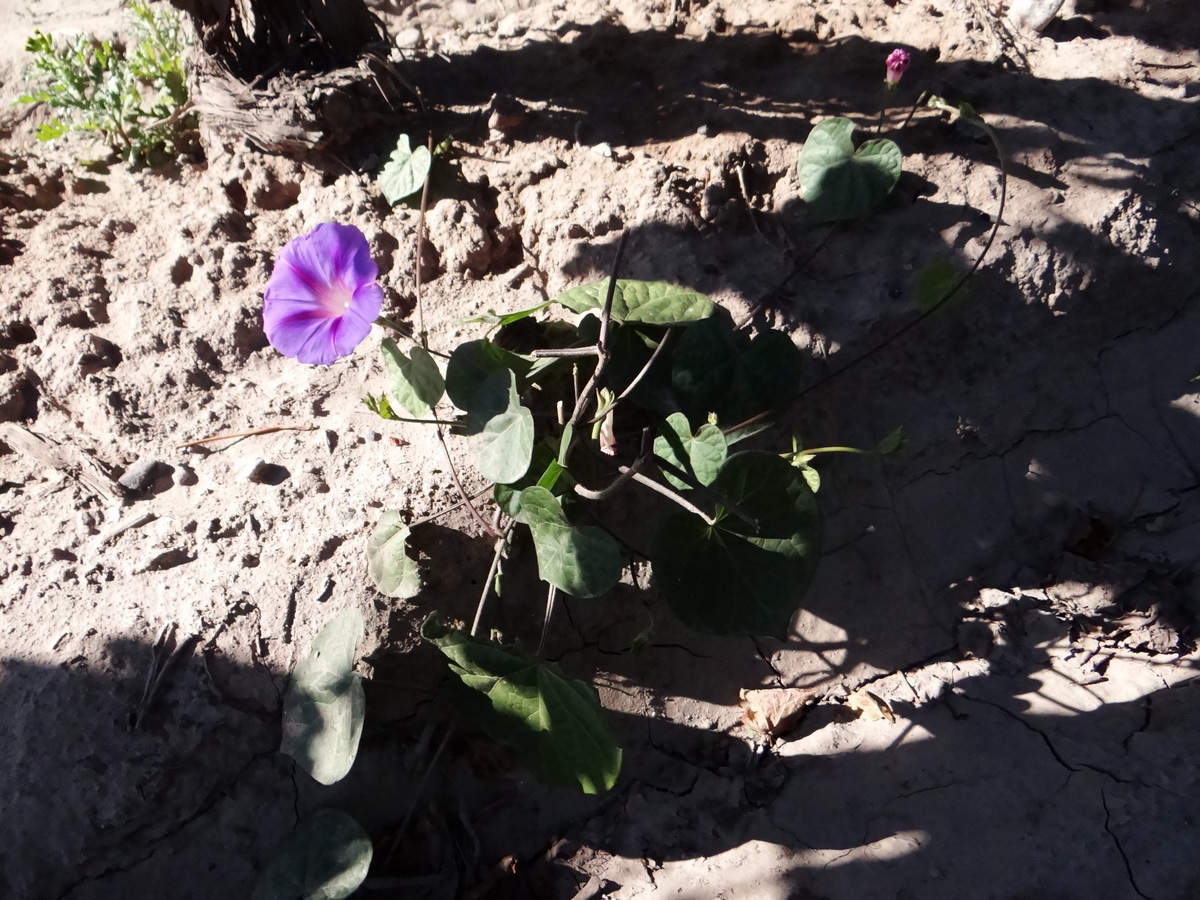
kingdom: Plantae
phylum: Tracheophyta
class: Magnoliopsida
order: Solanales
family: Convolvulaceae
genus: Ipomoea
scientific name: Ipomoea purpurea
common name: Common morning-glory
